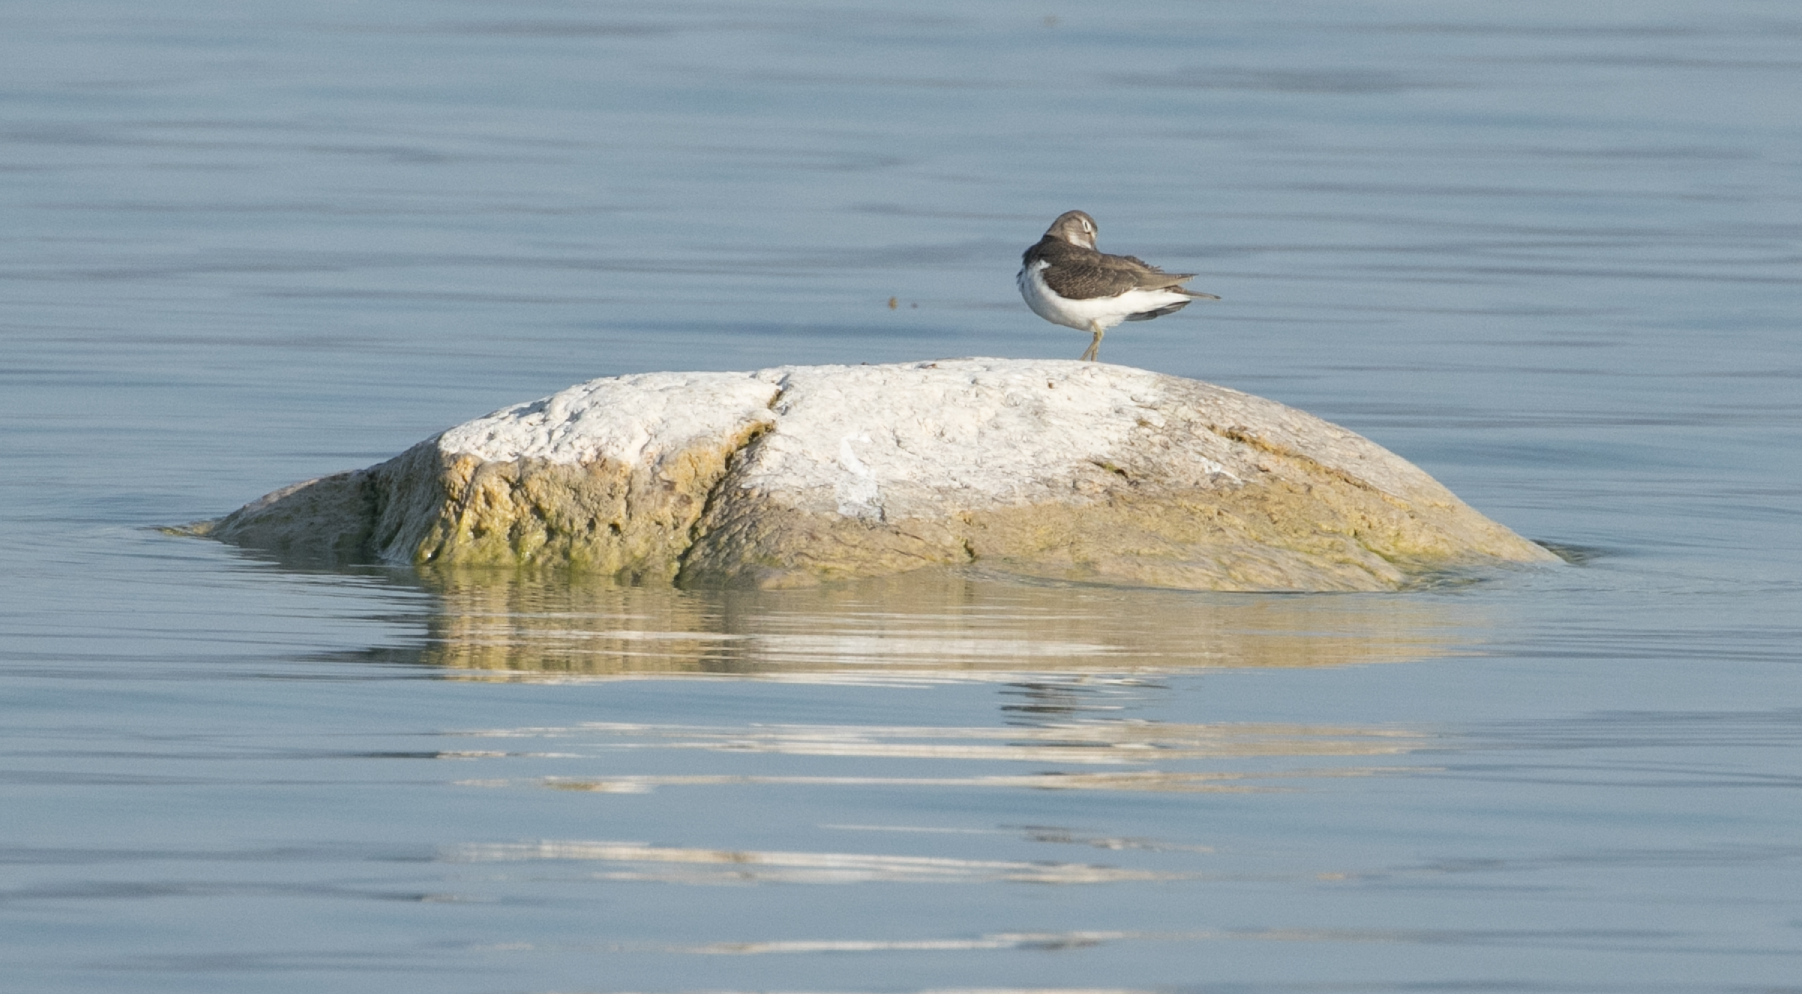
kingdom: Animalia
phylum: Chordata
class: Aves
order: Charadriiformes
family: Scolopacidae
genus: Actitis
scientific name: Actitis hypoleucos
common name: Common sandpiper
